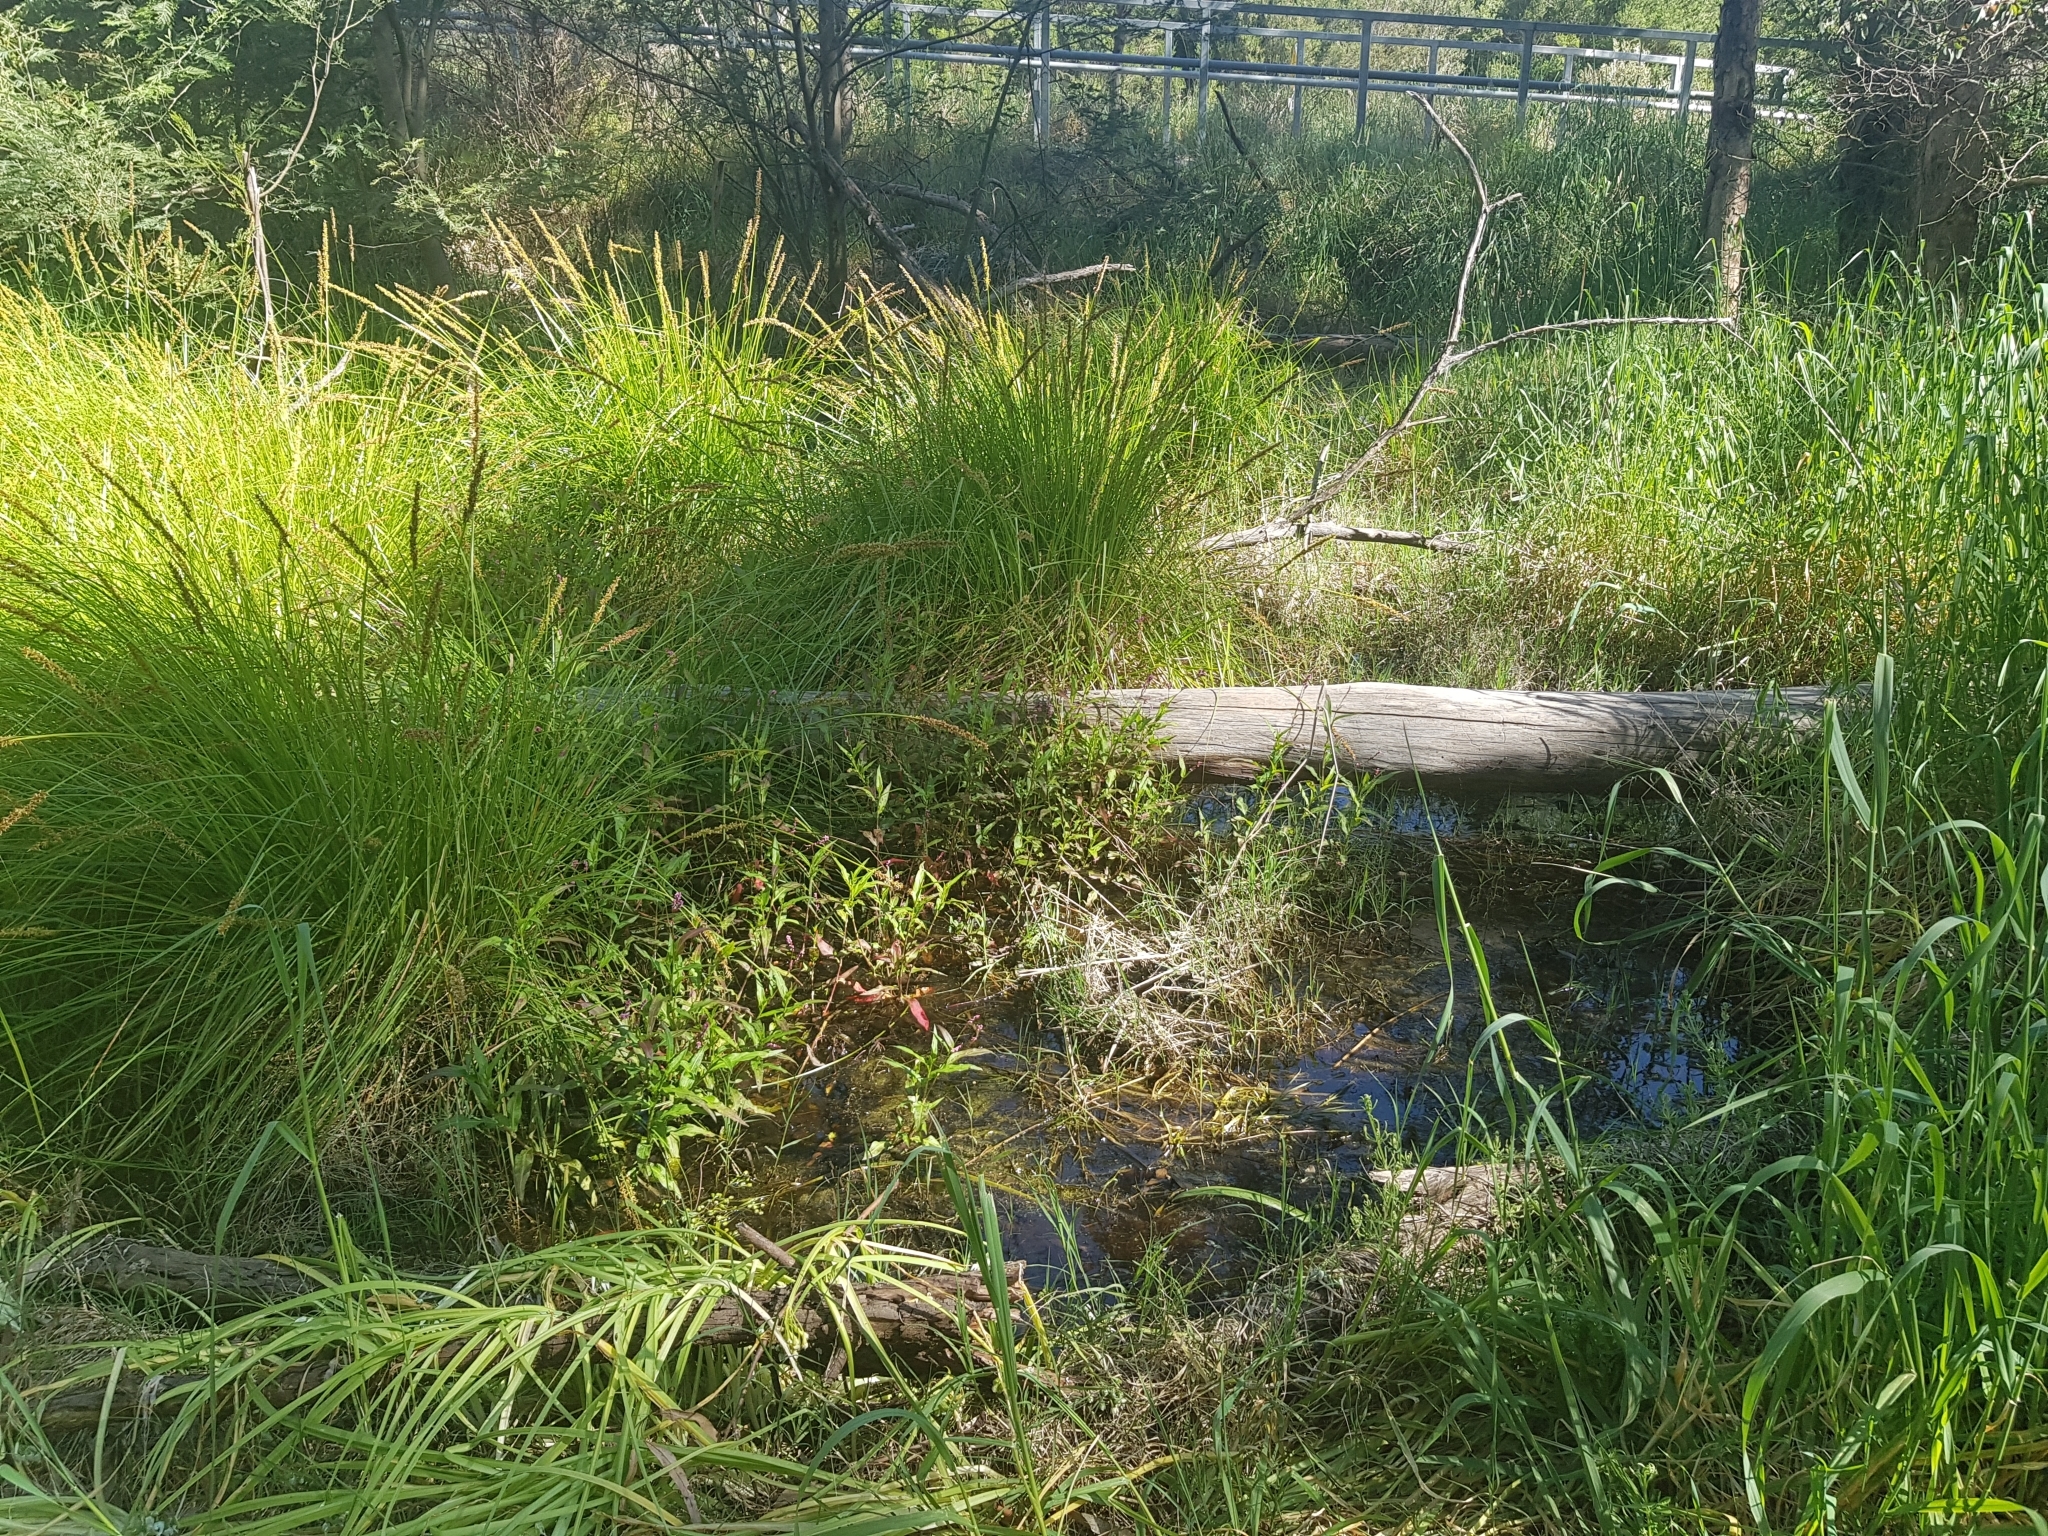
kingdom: Plantae
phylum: Tracheophyta
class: Liliopsida
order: Poales
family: Cyperaceae
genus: Carex
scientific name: Carex appressa
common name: Tussock sedge
